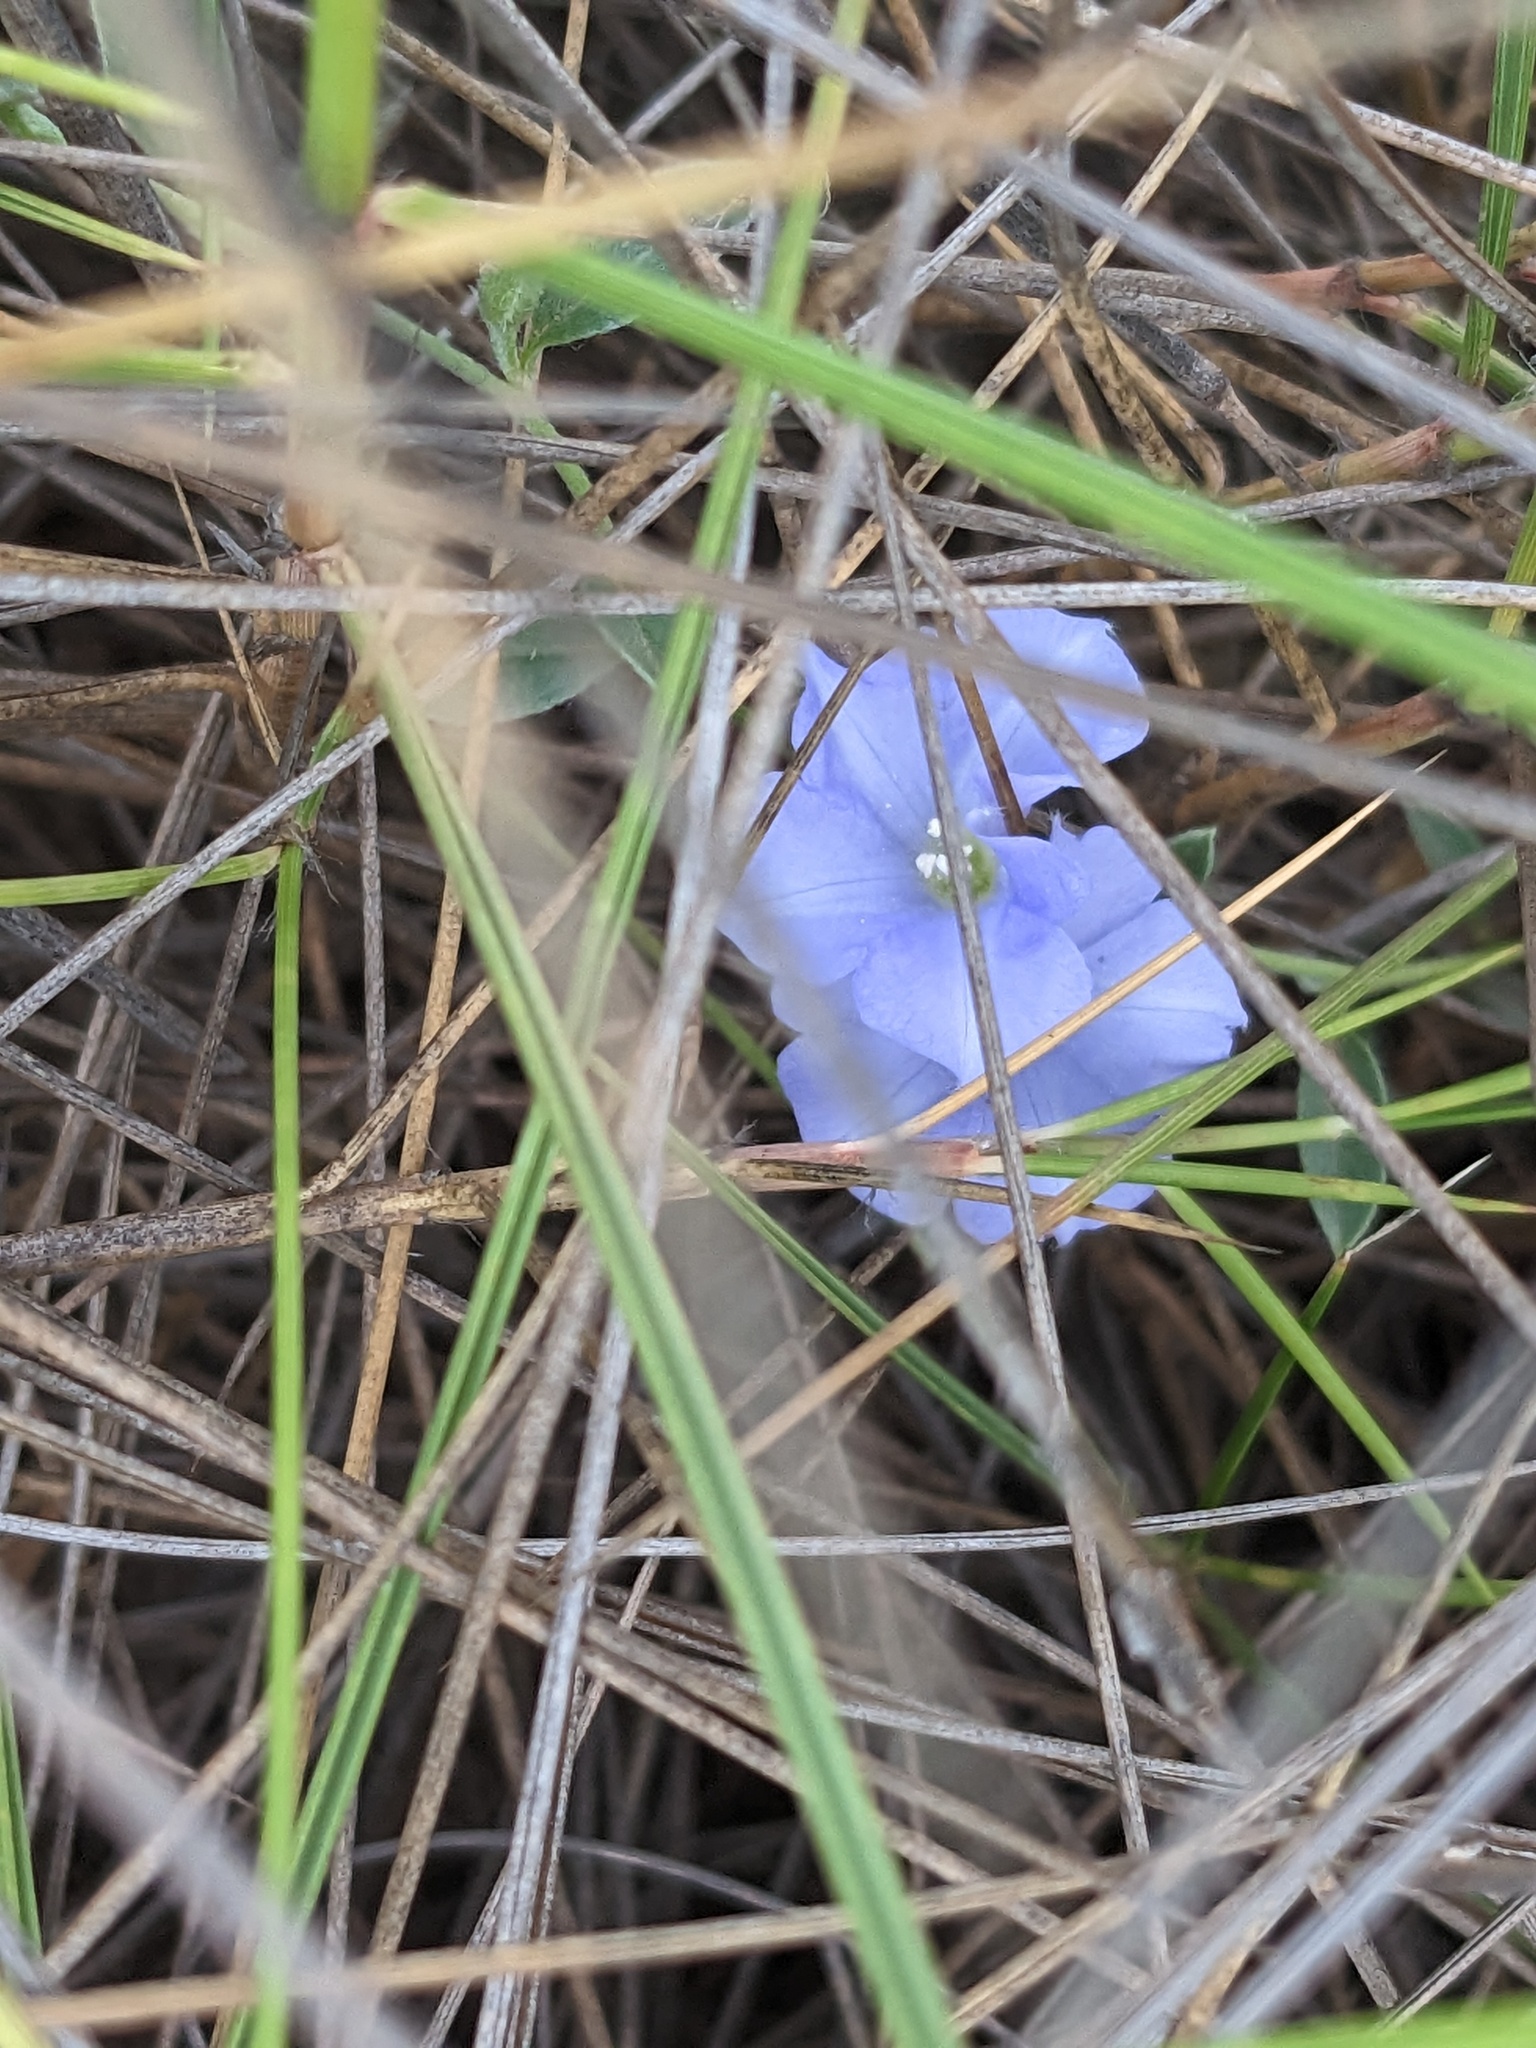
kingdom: Plantae
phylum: Tracheophyta
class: Magnoliopsida
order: Solanales
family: Convolvulaceae
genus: Evolvulus
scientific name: Evolvulus alsinoides
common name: Slender dwarf morning-glory
